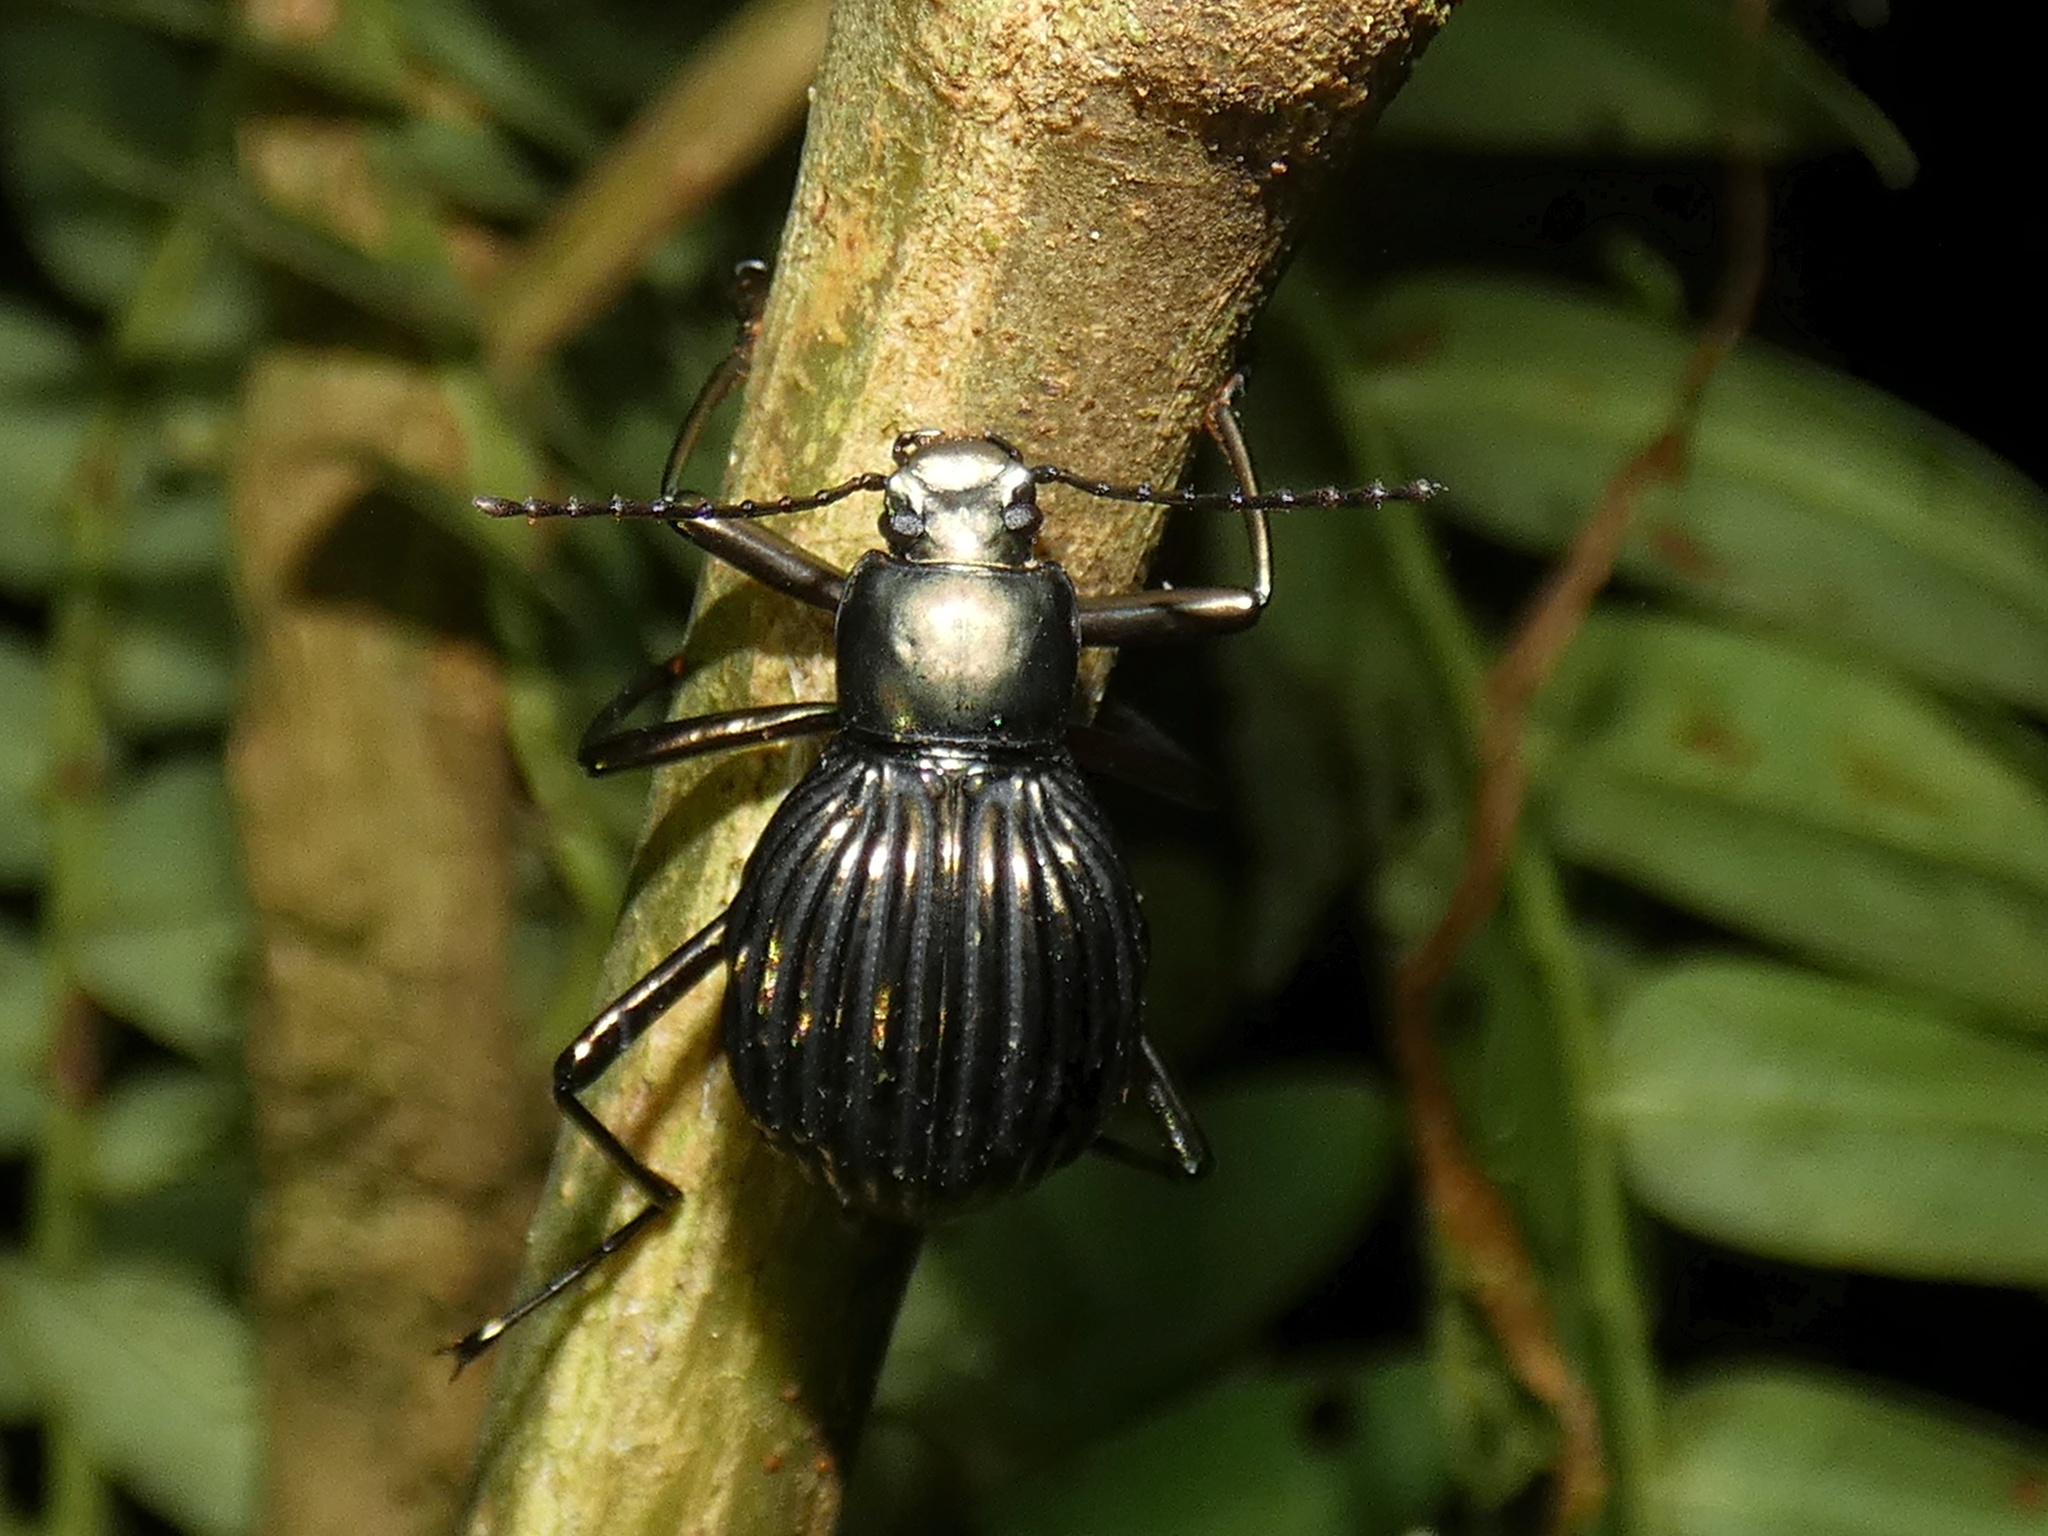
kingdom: Animalia
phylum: Arthropoda
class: Insecta
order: Coleoptera
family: Tenebrionidae
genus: Hegemona
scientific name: Hegemona chiriquensis
